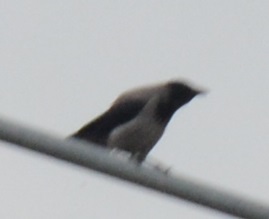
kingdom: Animalia
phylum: Chordata
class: Aves
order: Passeriformes
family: Corvidae
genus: Corvus
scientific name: Corvus cornix
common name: Hooded crow
